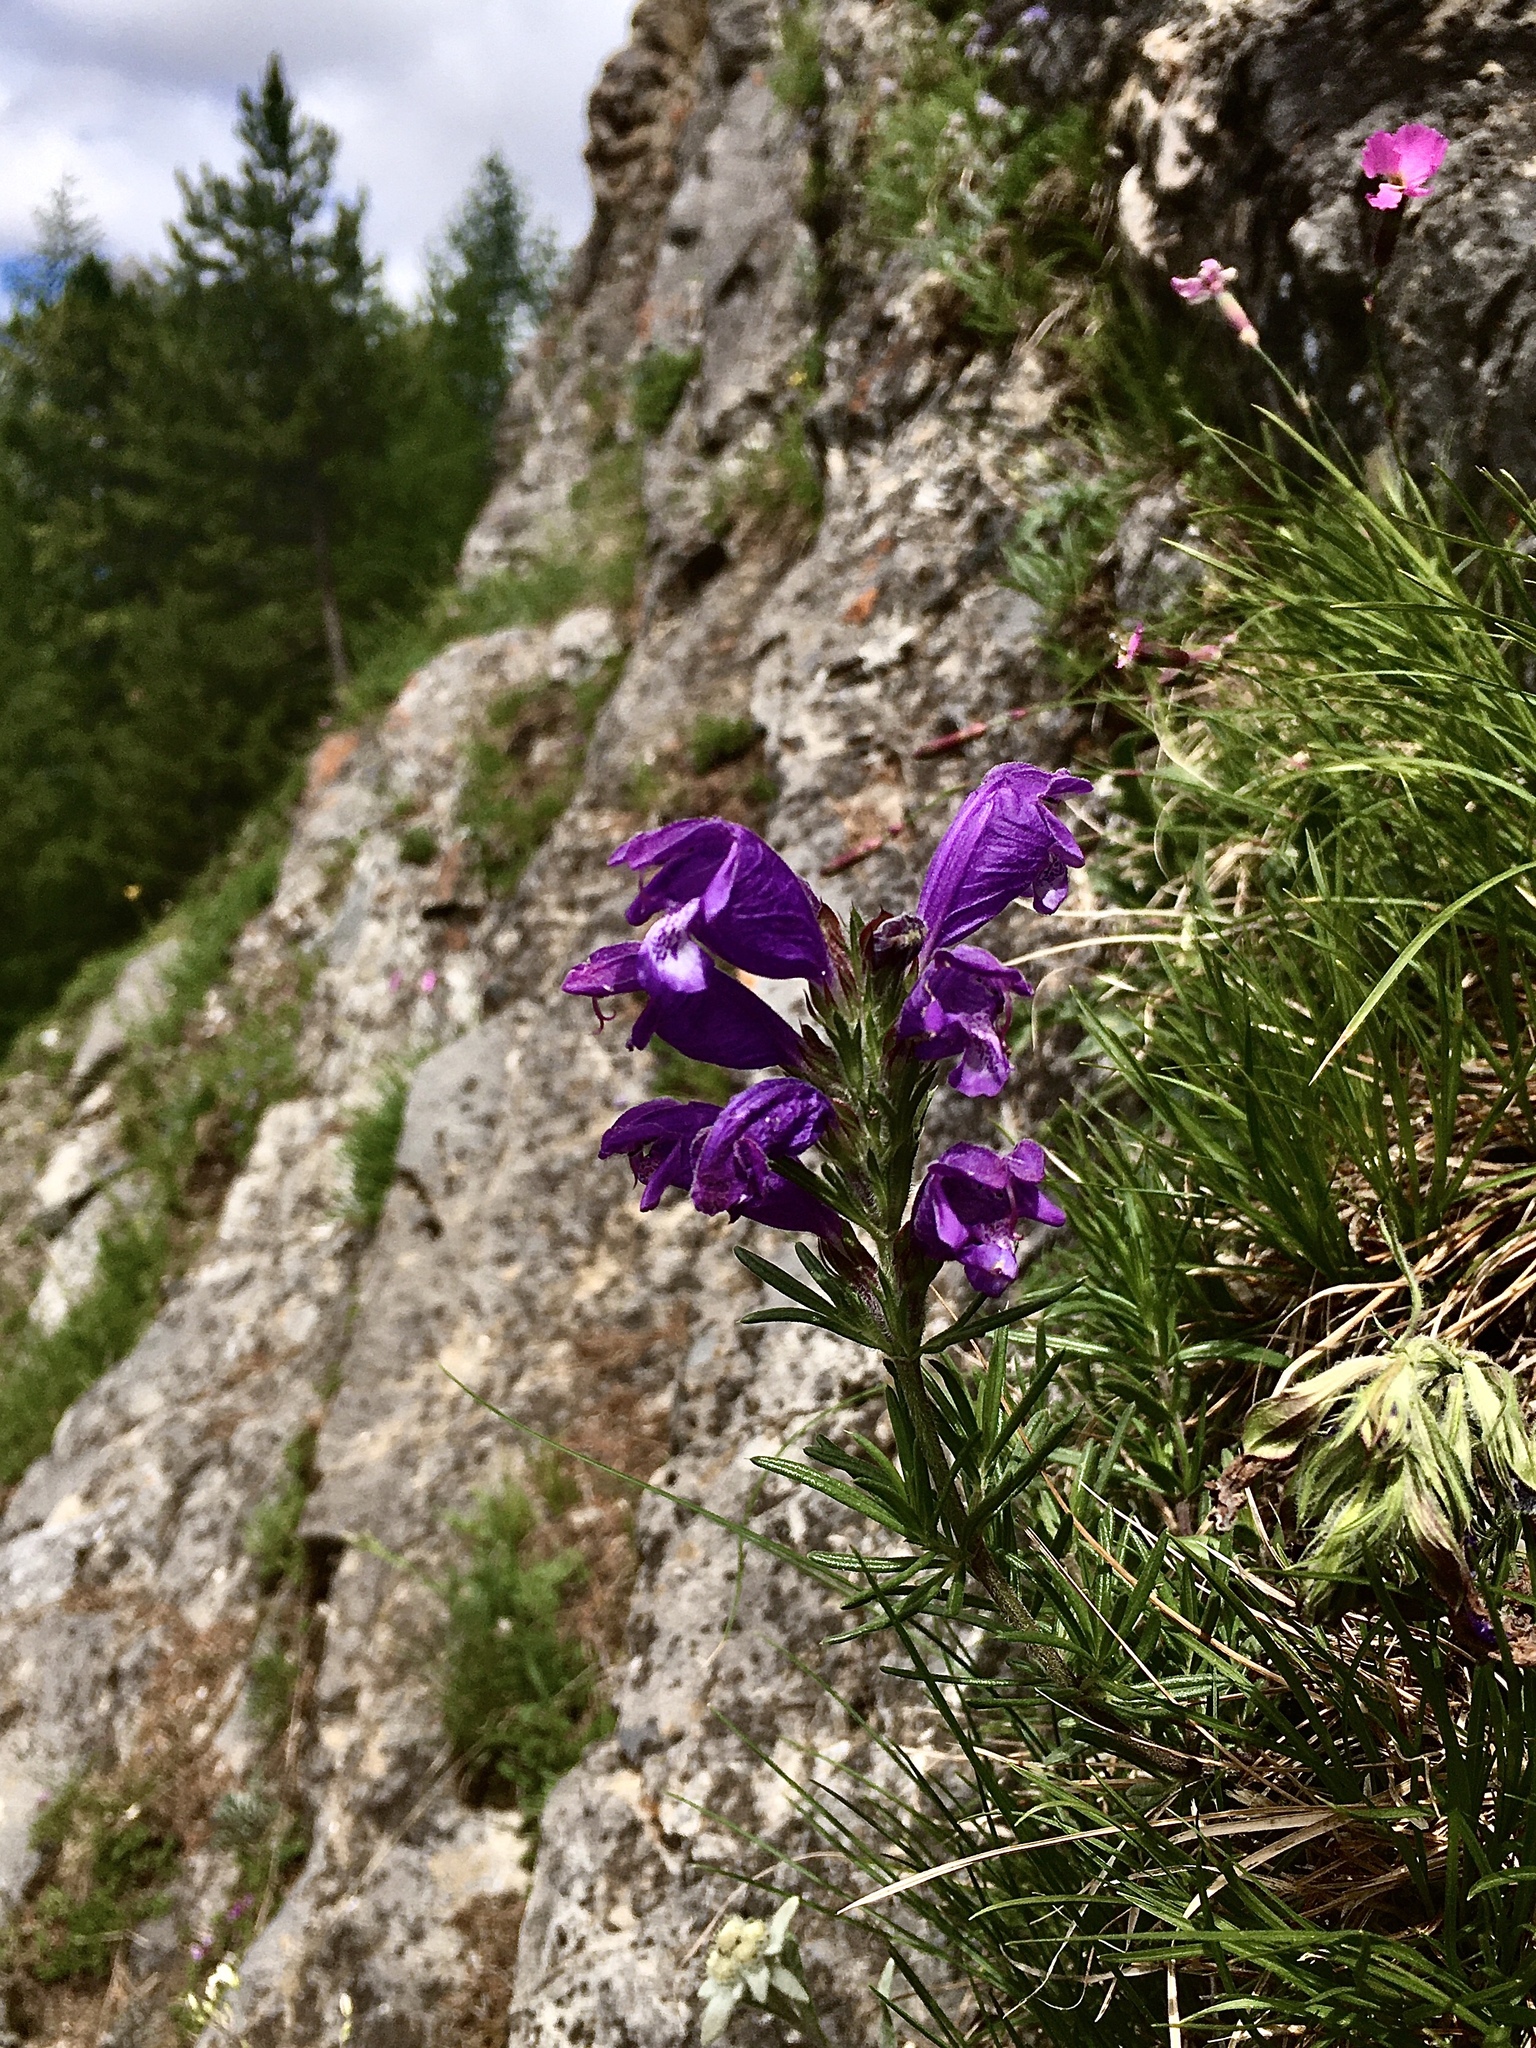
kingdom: Plantae
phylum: Tracheophyta
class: Magnoliopsida
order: Lamiales
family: Lamiaceae
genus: Dracocephalum
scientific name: Dracocephalum austriacum
